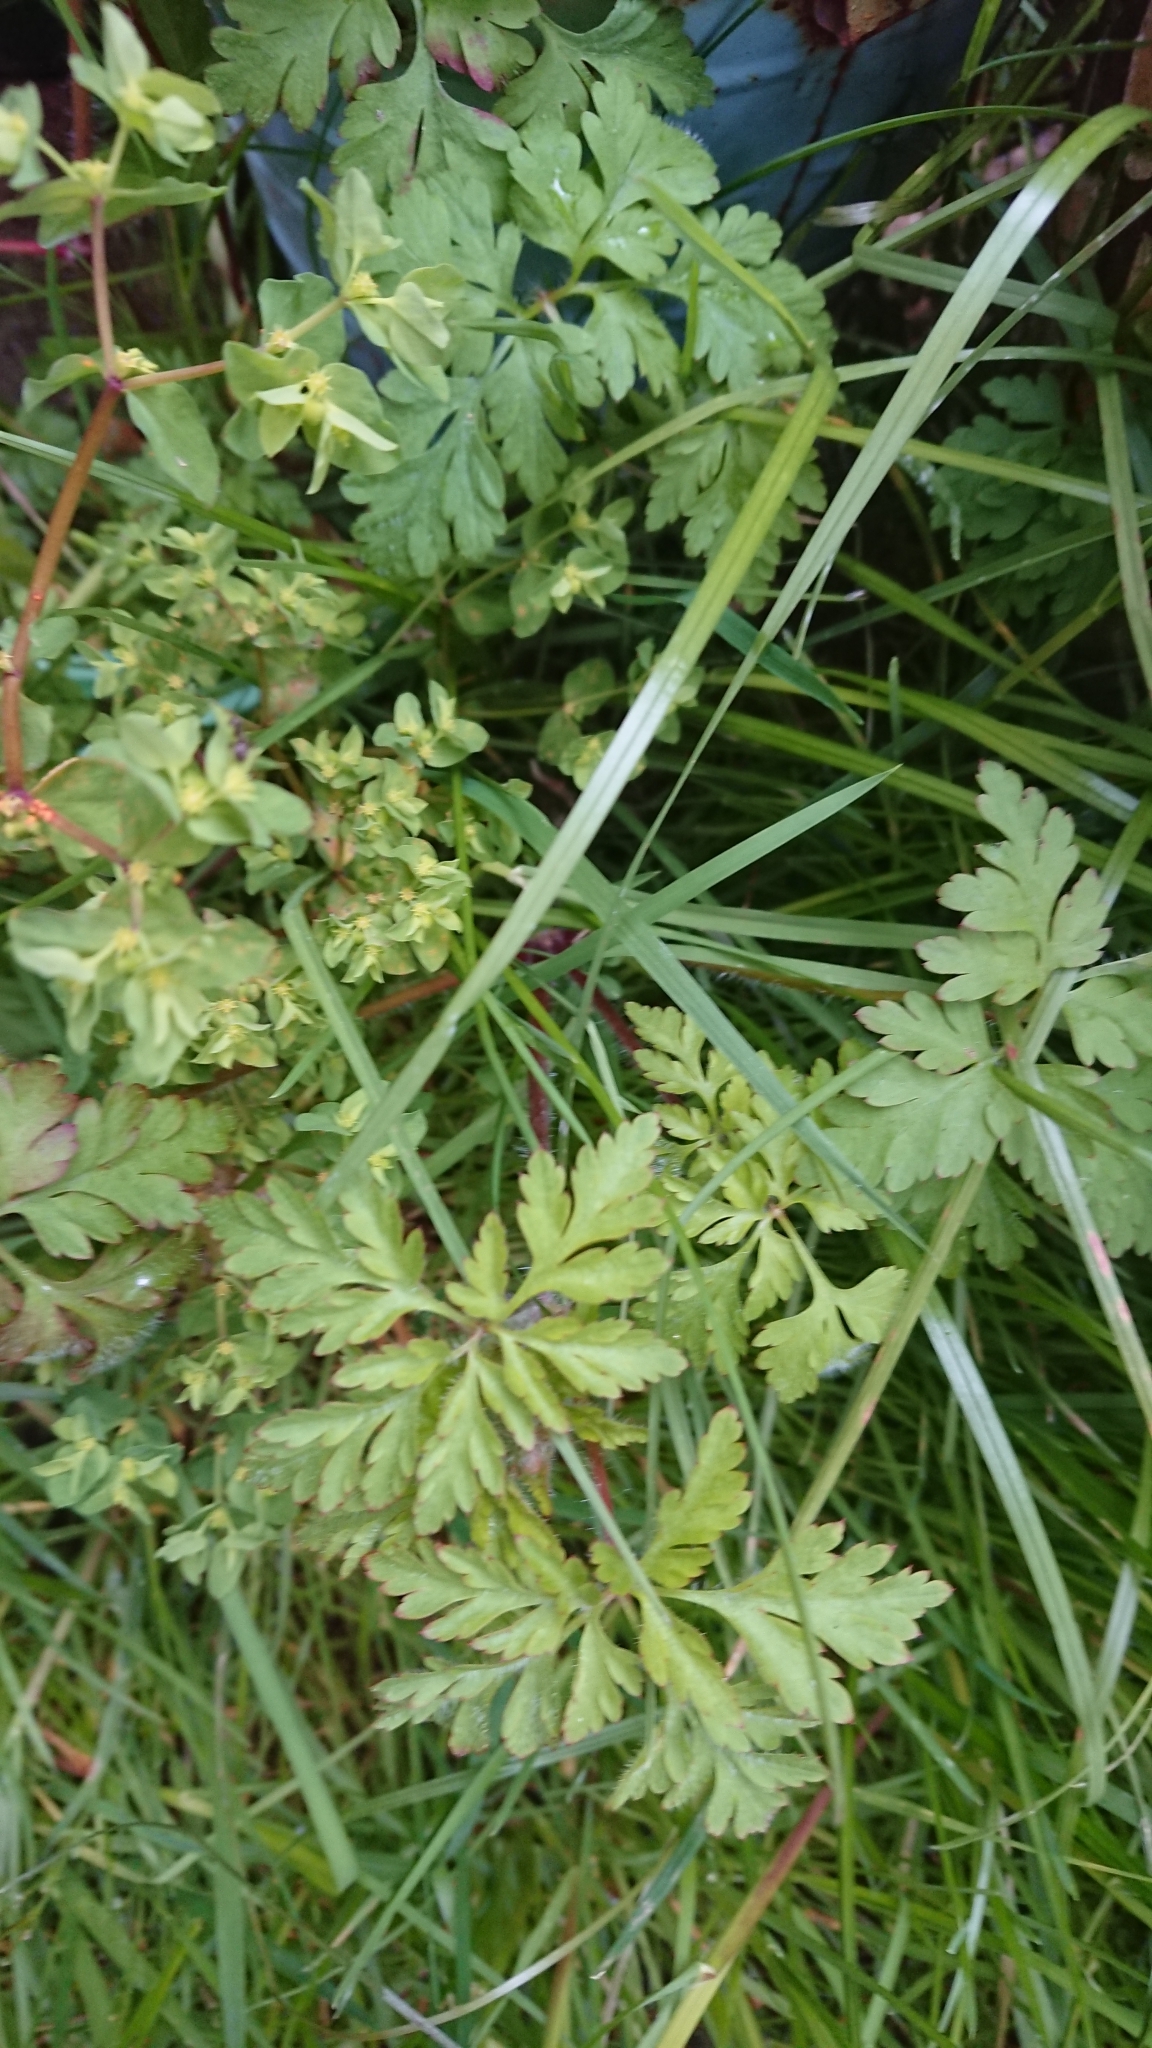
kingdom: Plantae
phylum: Tracheophyta
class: Magnoliopsida
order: Geraniales
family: Geraniaceae
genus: Geranium
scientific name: Geranium robertianum
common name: Herb-robert
